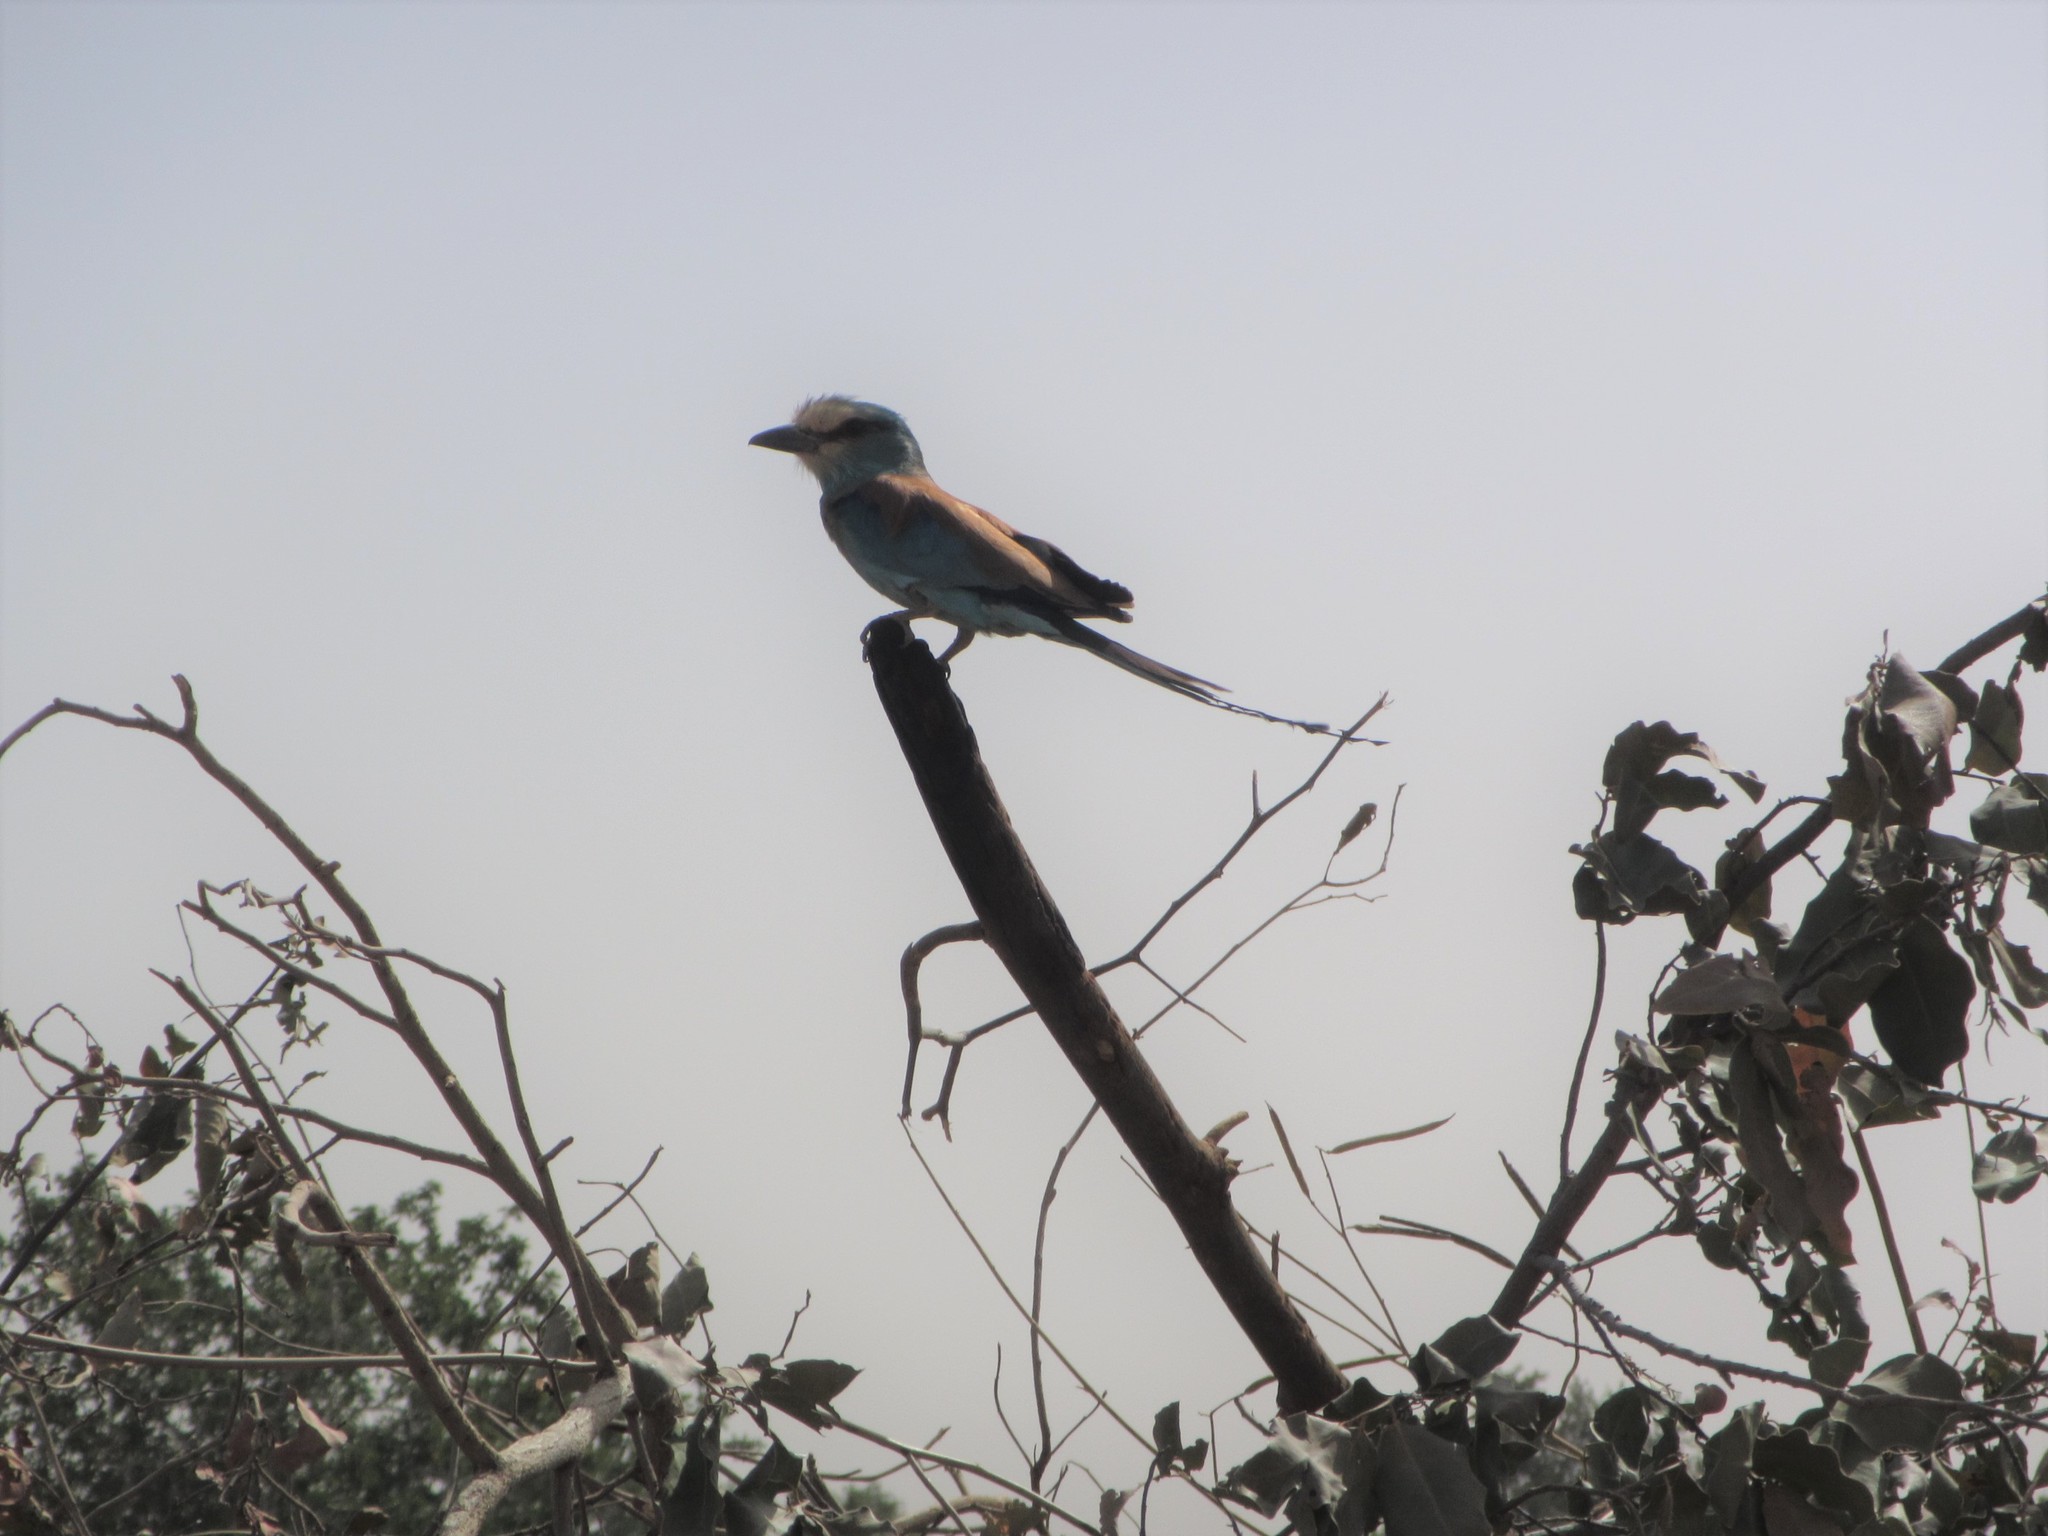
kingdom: Animalia
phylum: Chordata
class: Aves
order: Coraciiformes
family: Coraciidae
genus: Coracias
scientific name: Coracias abyssinicus
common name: Abyssinian roller
